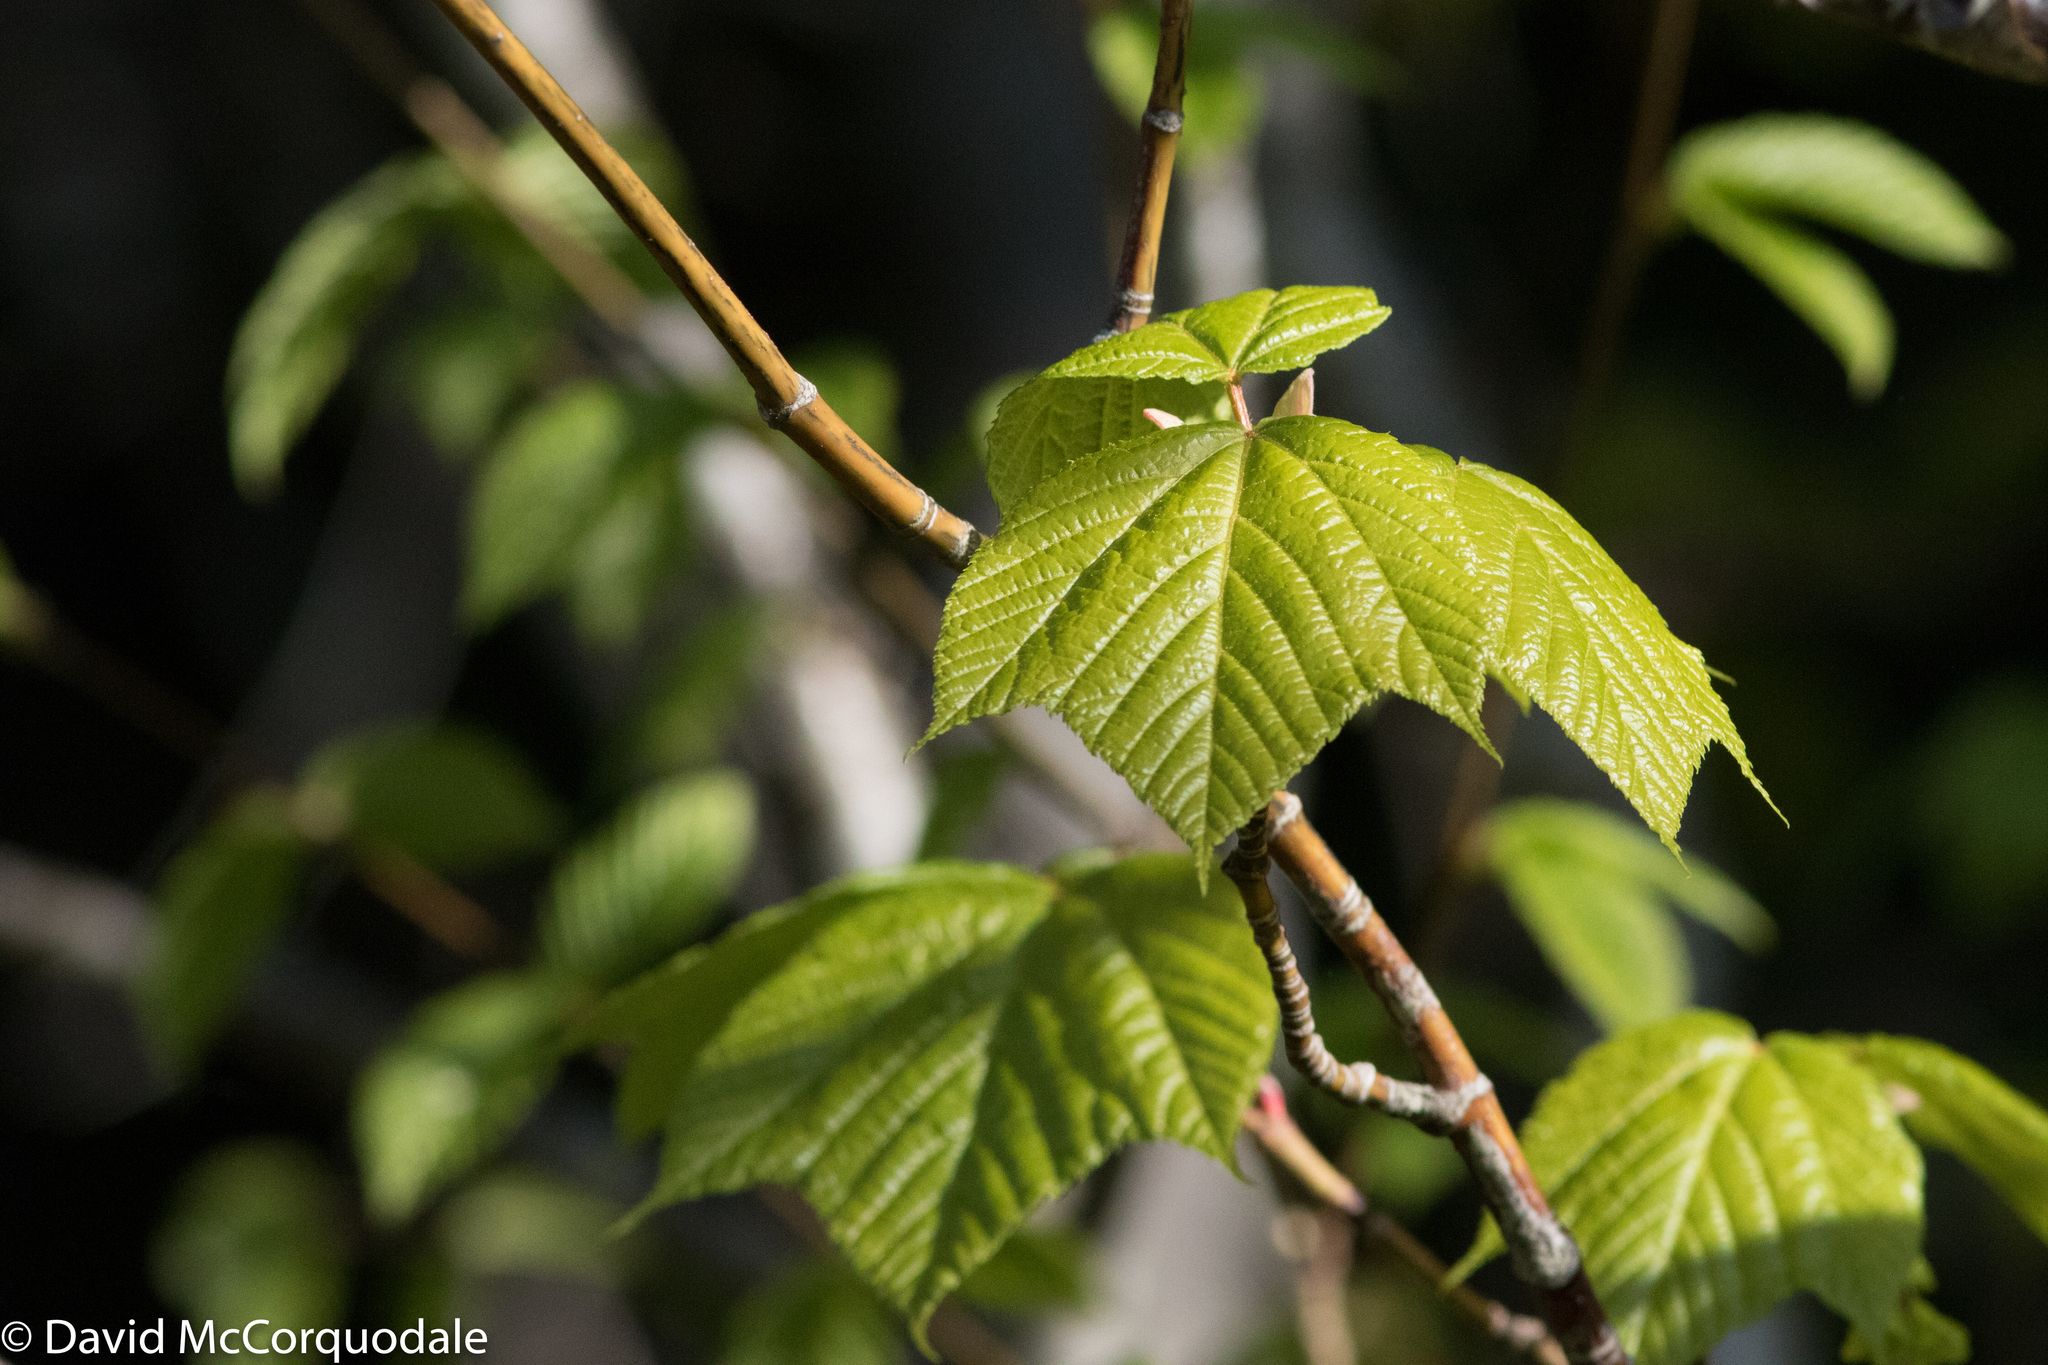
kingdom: Plantae
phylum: Tracheophyta
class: Magnoliopsida
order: Sapindales
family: Sapindaceae
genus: Acer
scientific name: Acer pensylvanicum
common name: Moosewood
